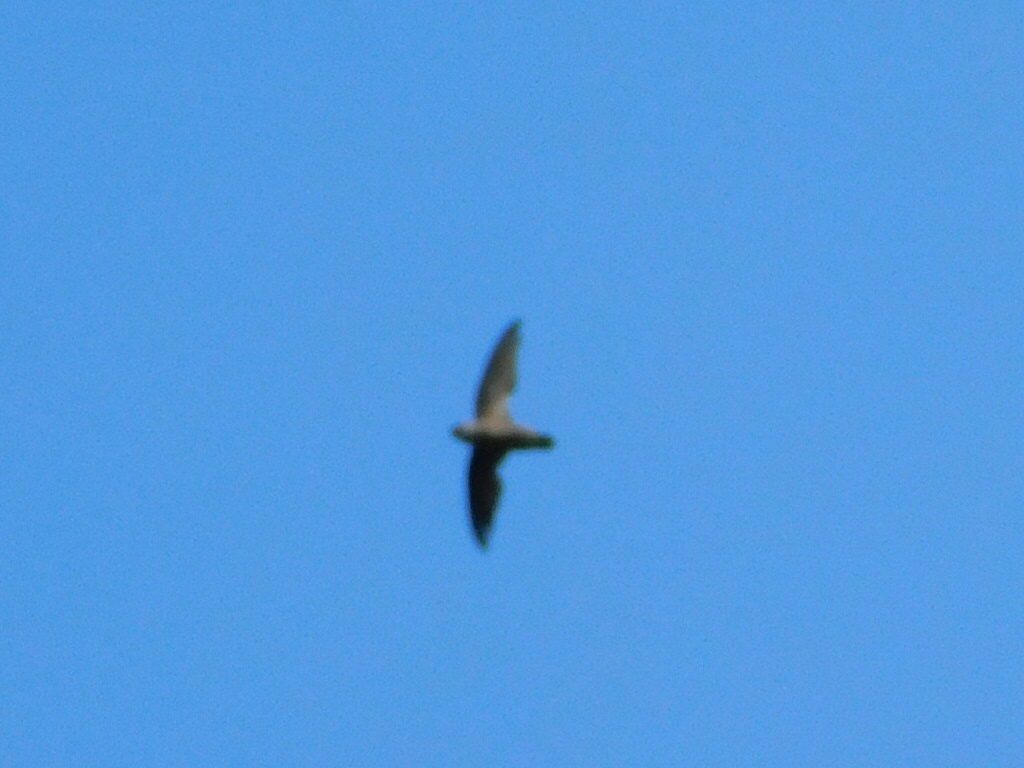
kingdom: Animalia
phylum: Chordata
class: Aves
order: Apodiformes
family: Apodidae
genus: Chaetura
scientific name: Chaetura pelagica
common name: Chimney swift
